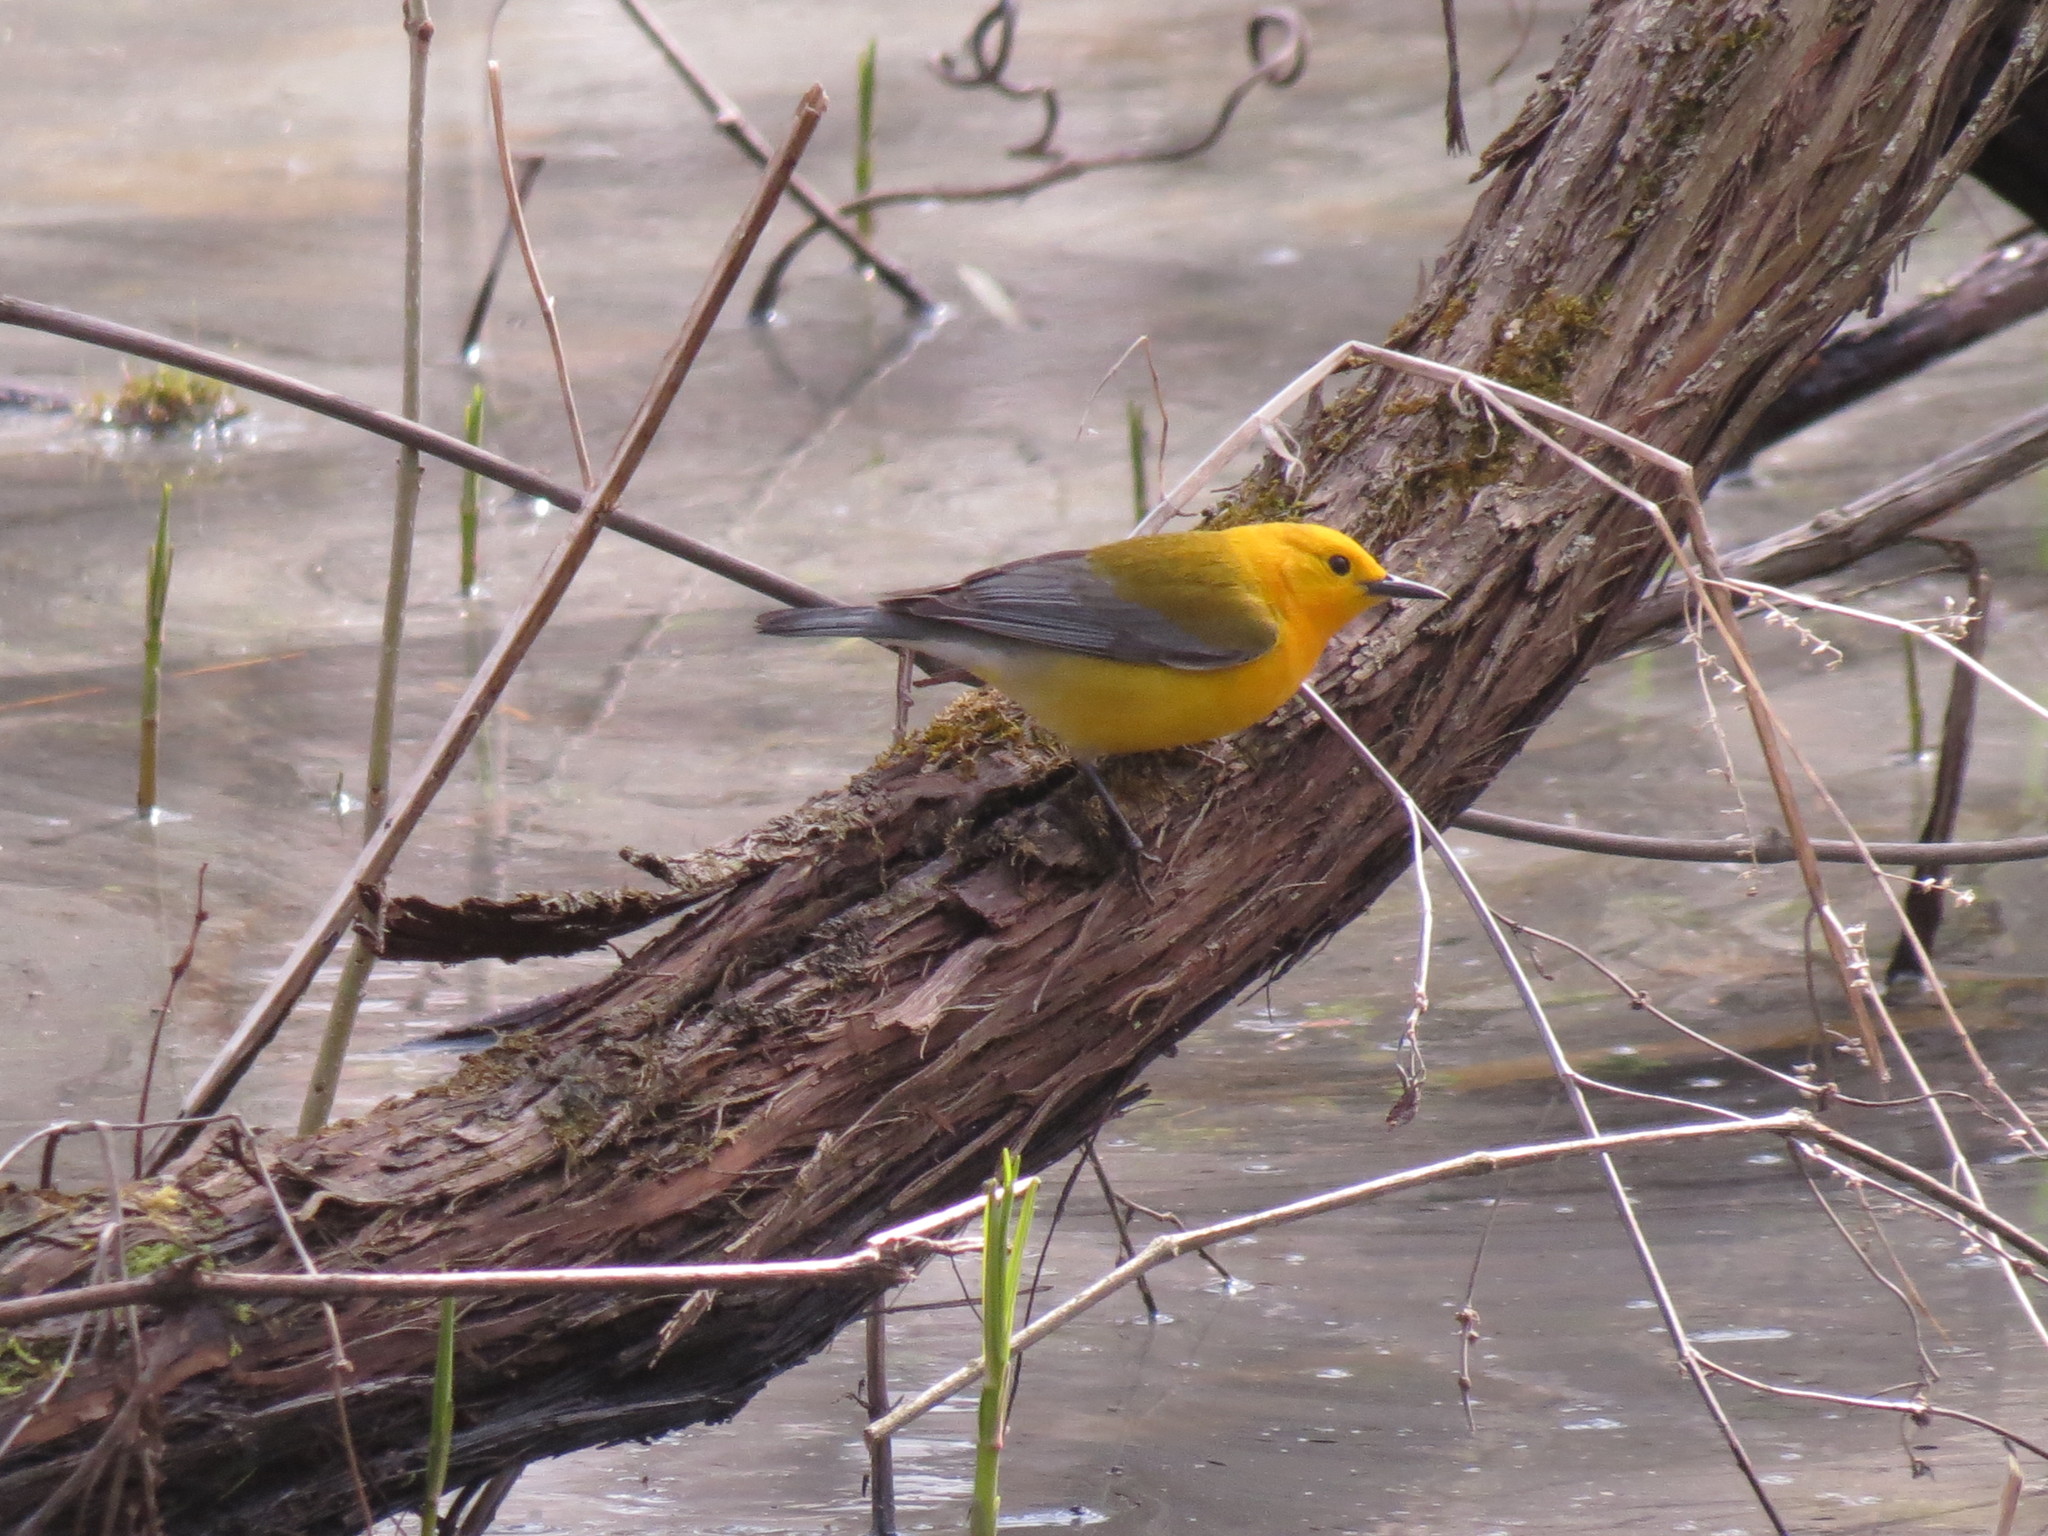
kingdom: Animalia
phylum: Chordata
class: Aves
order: Passeriformes
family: Parulidae
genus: Protonotaria
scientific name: Protonotaria citrea
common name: Prothonotary warbler
